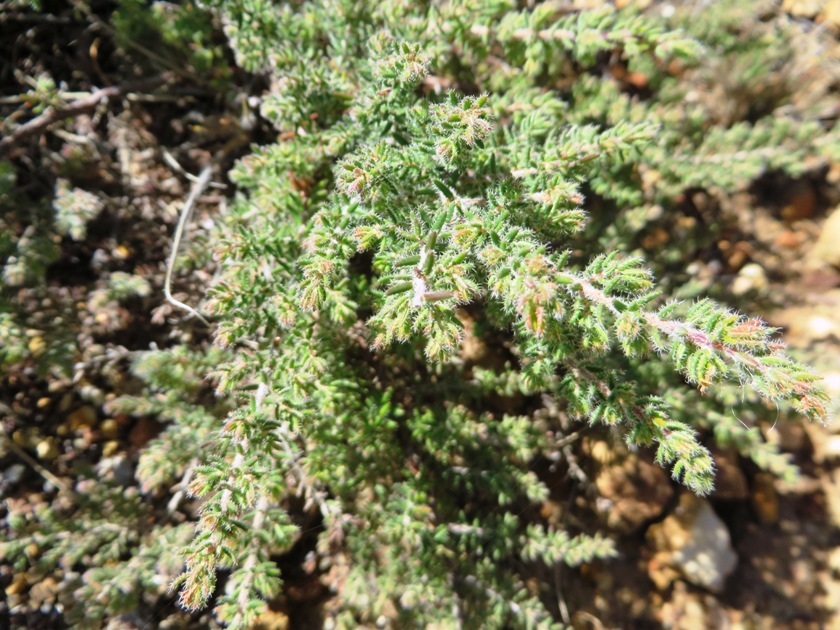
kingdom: Plantae
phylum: Tracheophyta
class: Magnoliopsida
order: Ericales
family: Ericaceae
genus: Erica
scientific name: Erica totta
